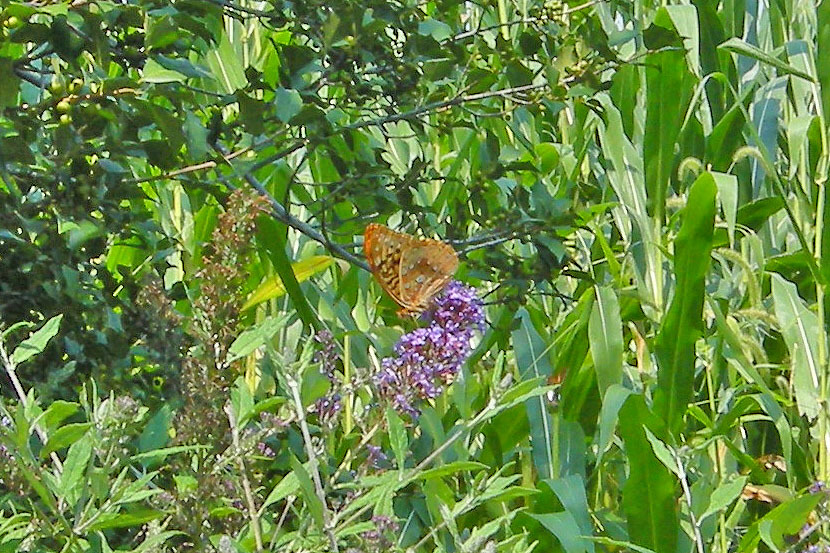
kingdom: Animalia
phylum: Arthropoda
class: Insecta
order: Lepidoptera
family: Nymphalidae
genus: Speyeria
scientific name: Speyeria cybele
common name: Great spangled fritillary
